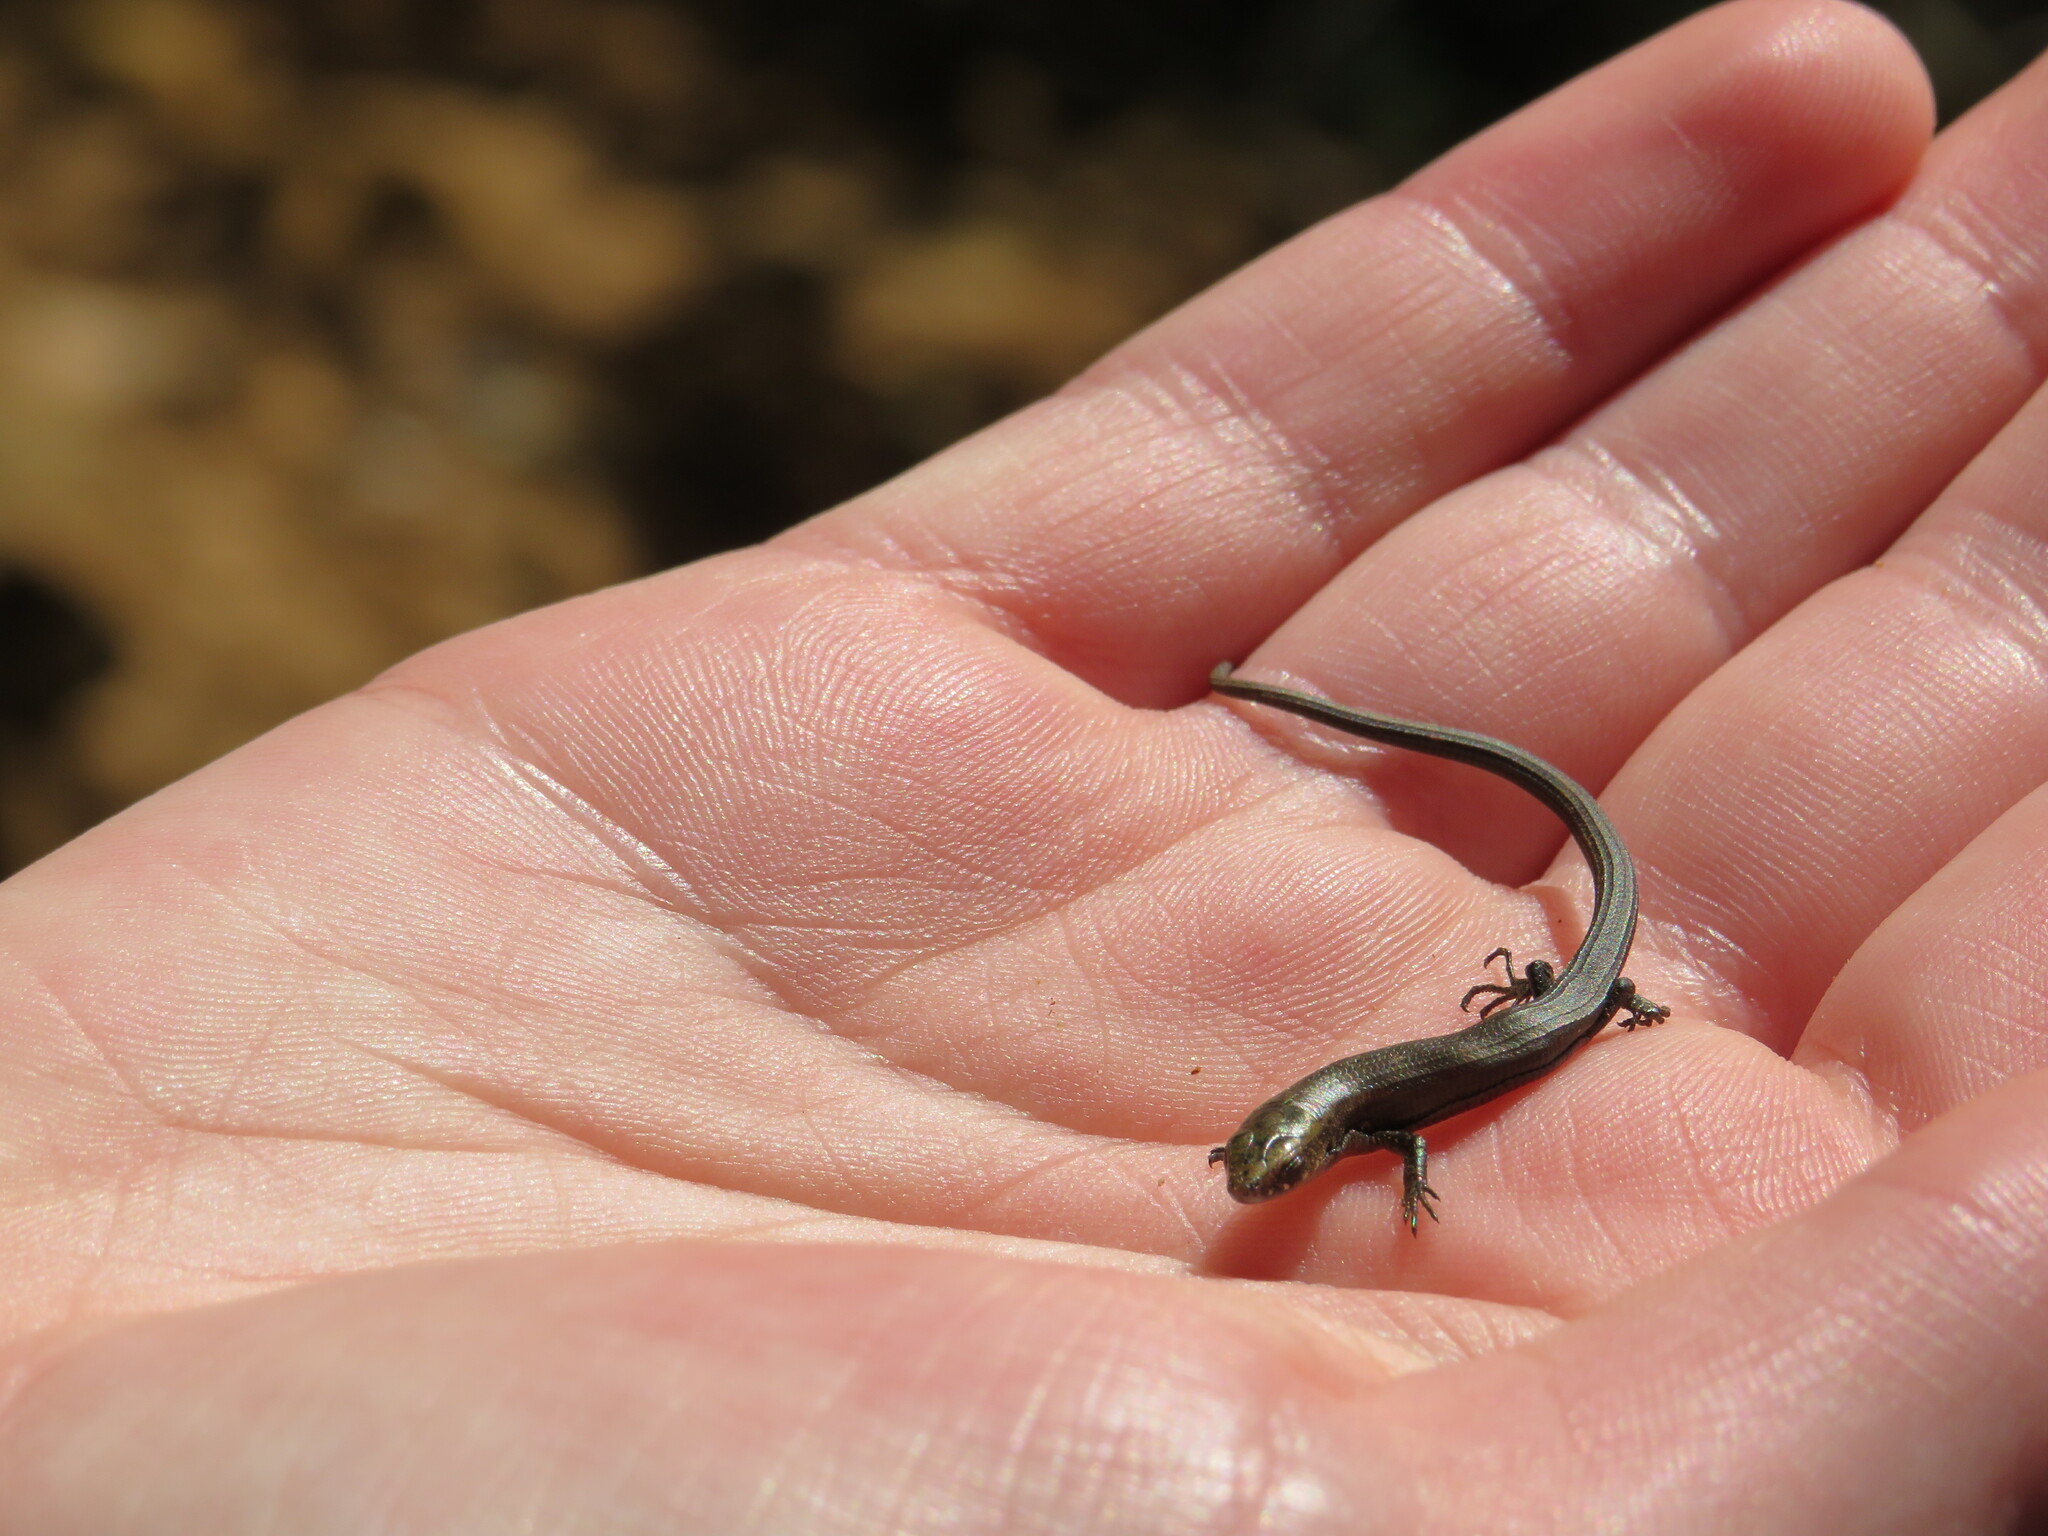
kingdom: Animalia
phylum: Chordata
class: Squamata
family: Gerrhosauridae
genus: Tetradactylus
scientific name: Tetradactylus seps
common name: Five-toed whip lizard
